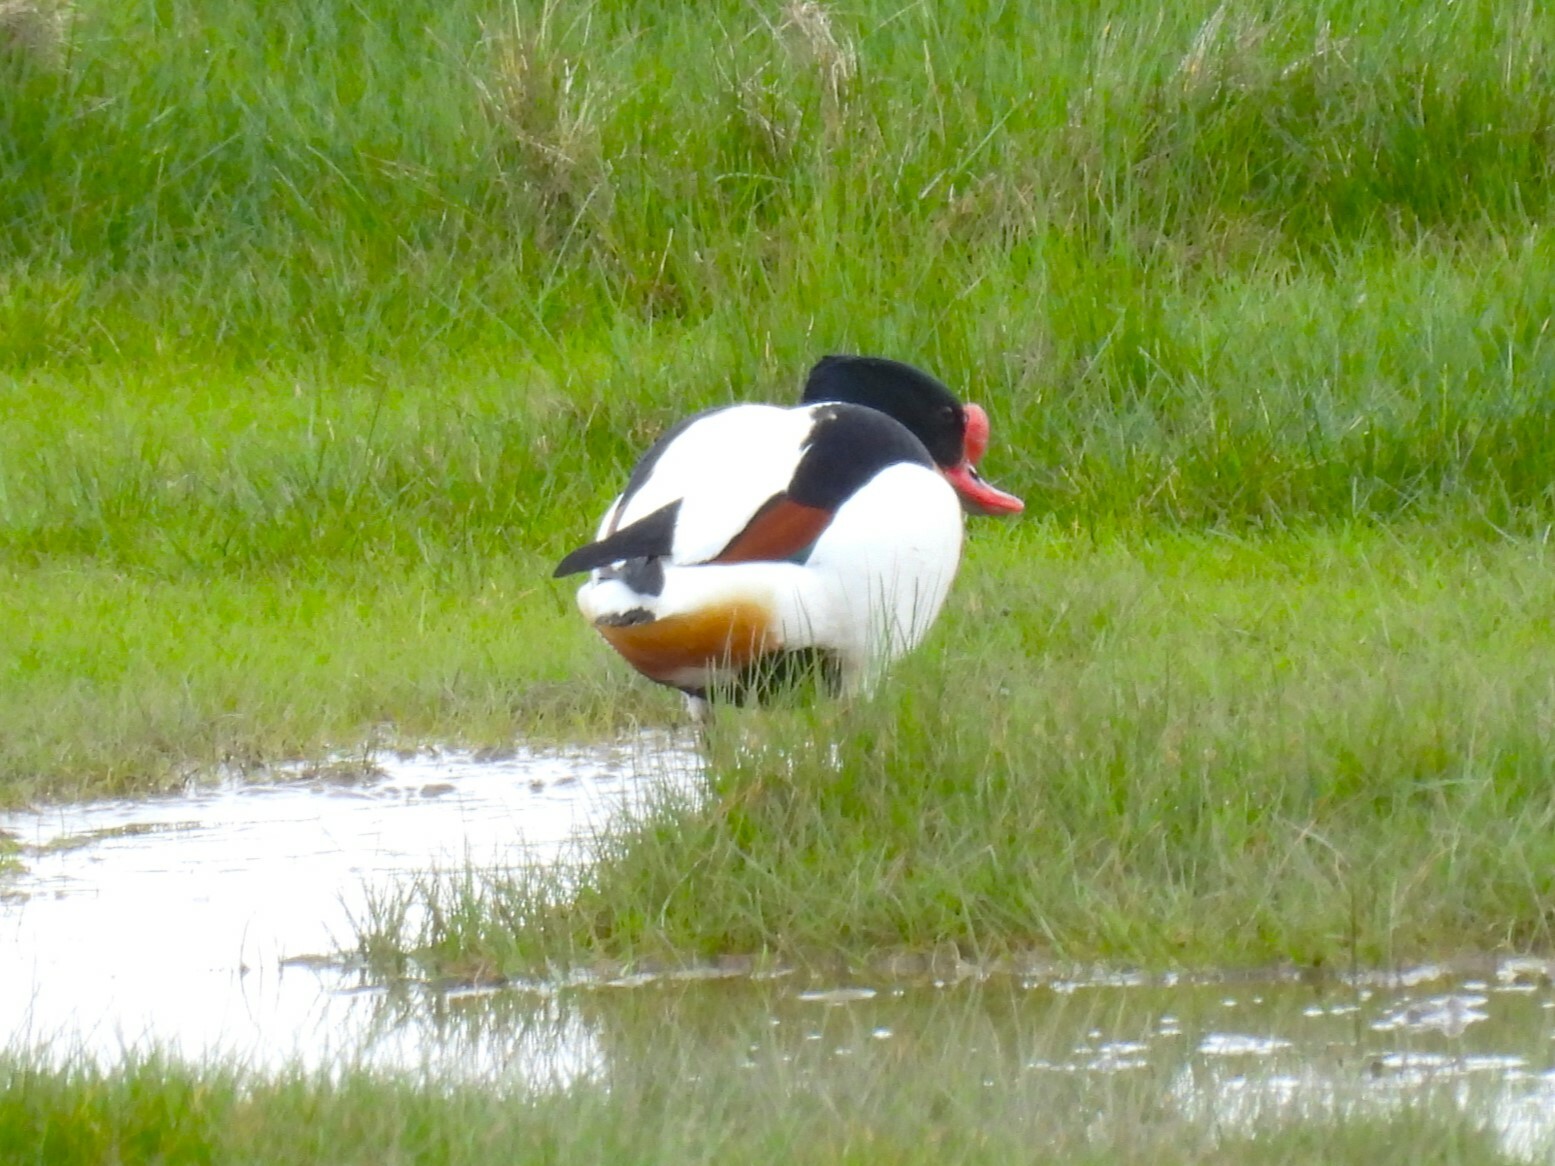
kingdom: Animalia
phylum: Chordata
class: Aves
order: Anseriformes
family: Anatidae
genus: Tadorna
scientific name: Tadorna tadorna
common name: Common shelduck
